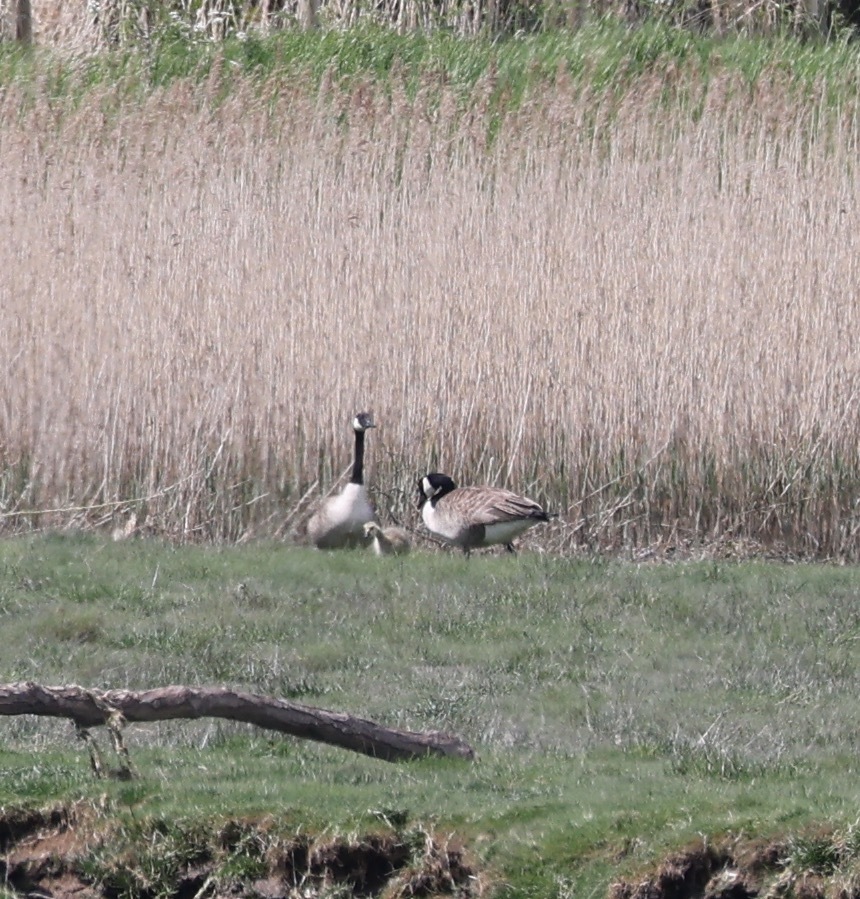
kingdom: Animalia
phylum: Chordata
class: Aves
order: Anseriformes
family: Anatidae
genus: Branta
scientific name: Branta canadensis
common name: Canada goose
